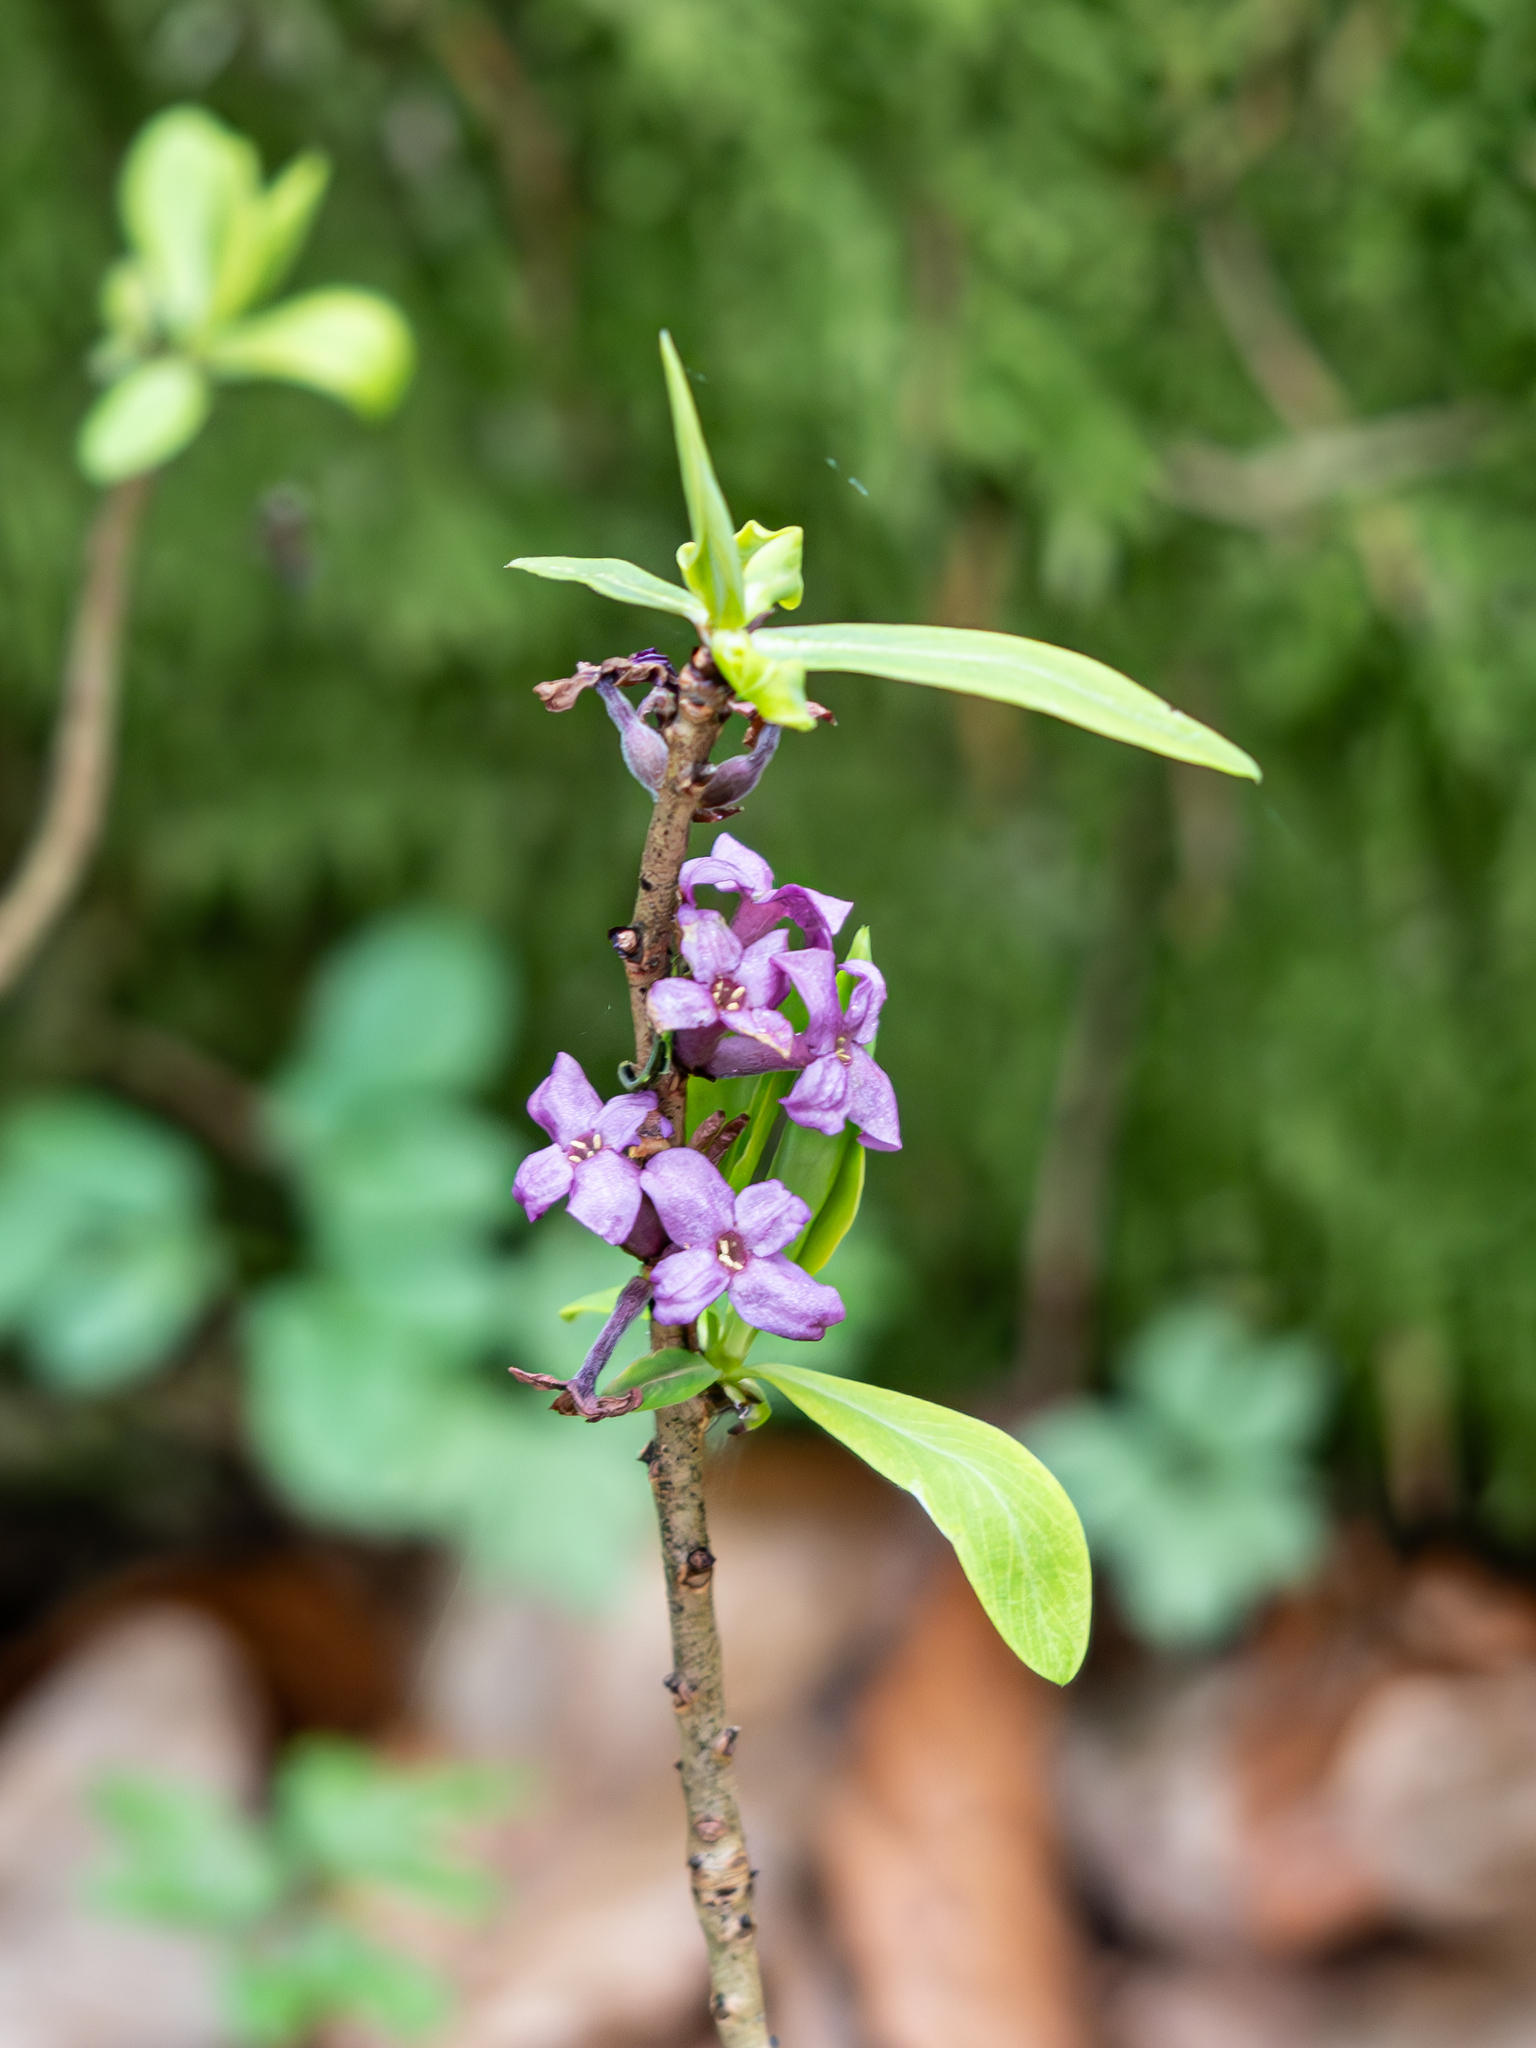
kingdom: Plantae
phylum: Tracheophyta
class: Magnoliopsida
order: Malvales
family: Thymelaeaceae
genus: Daphne
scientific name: Daphne mezereum
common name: Mezereon
